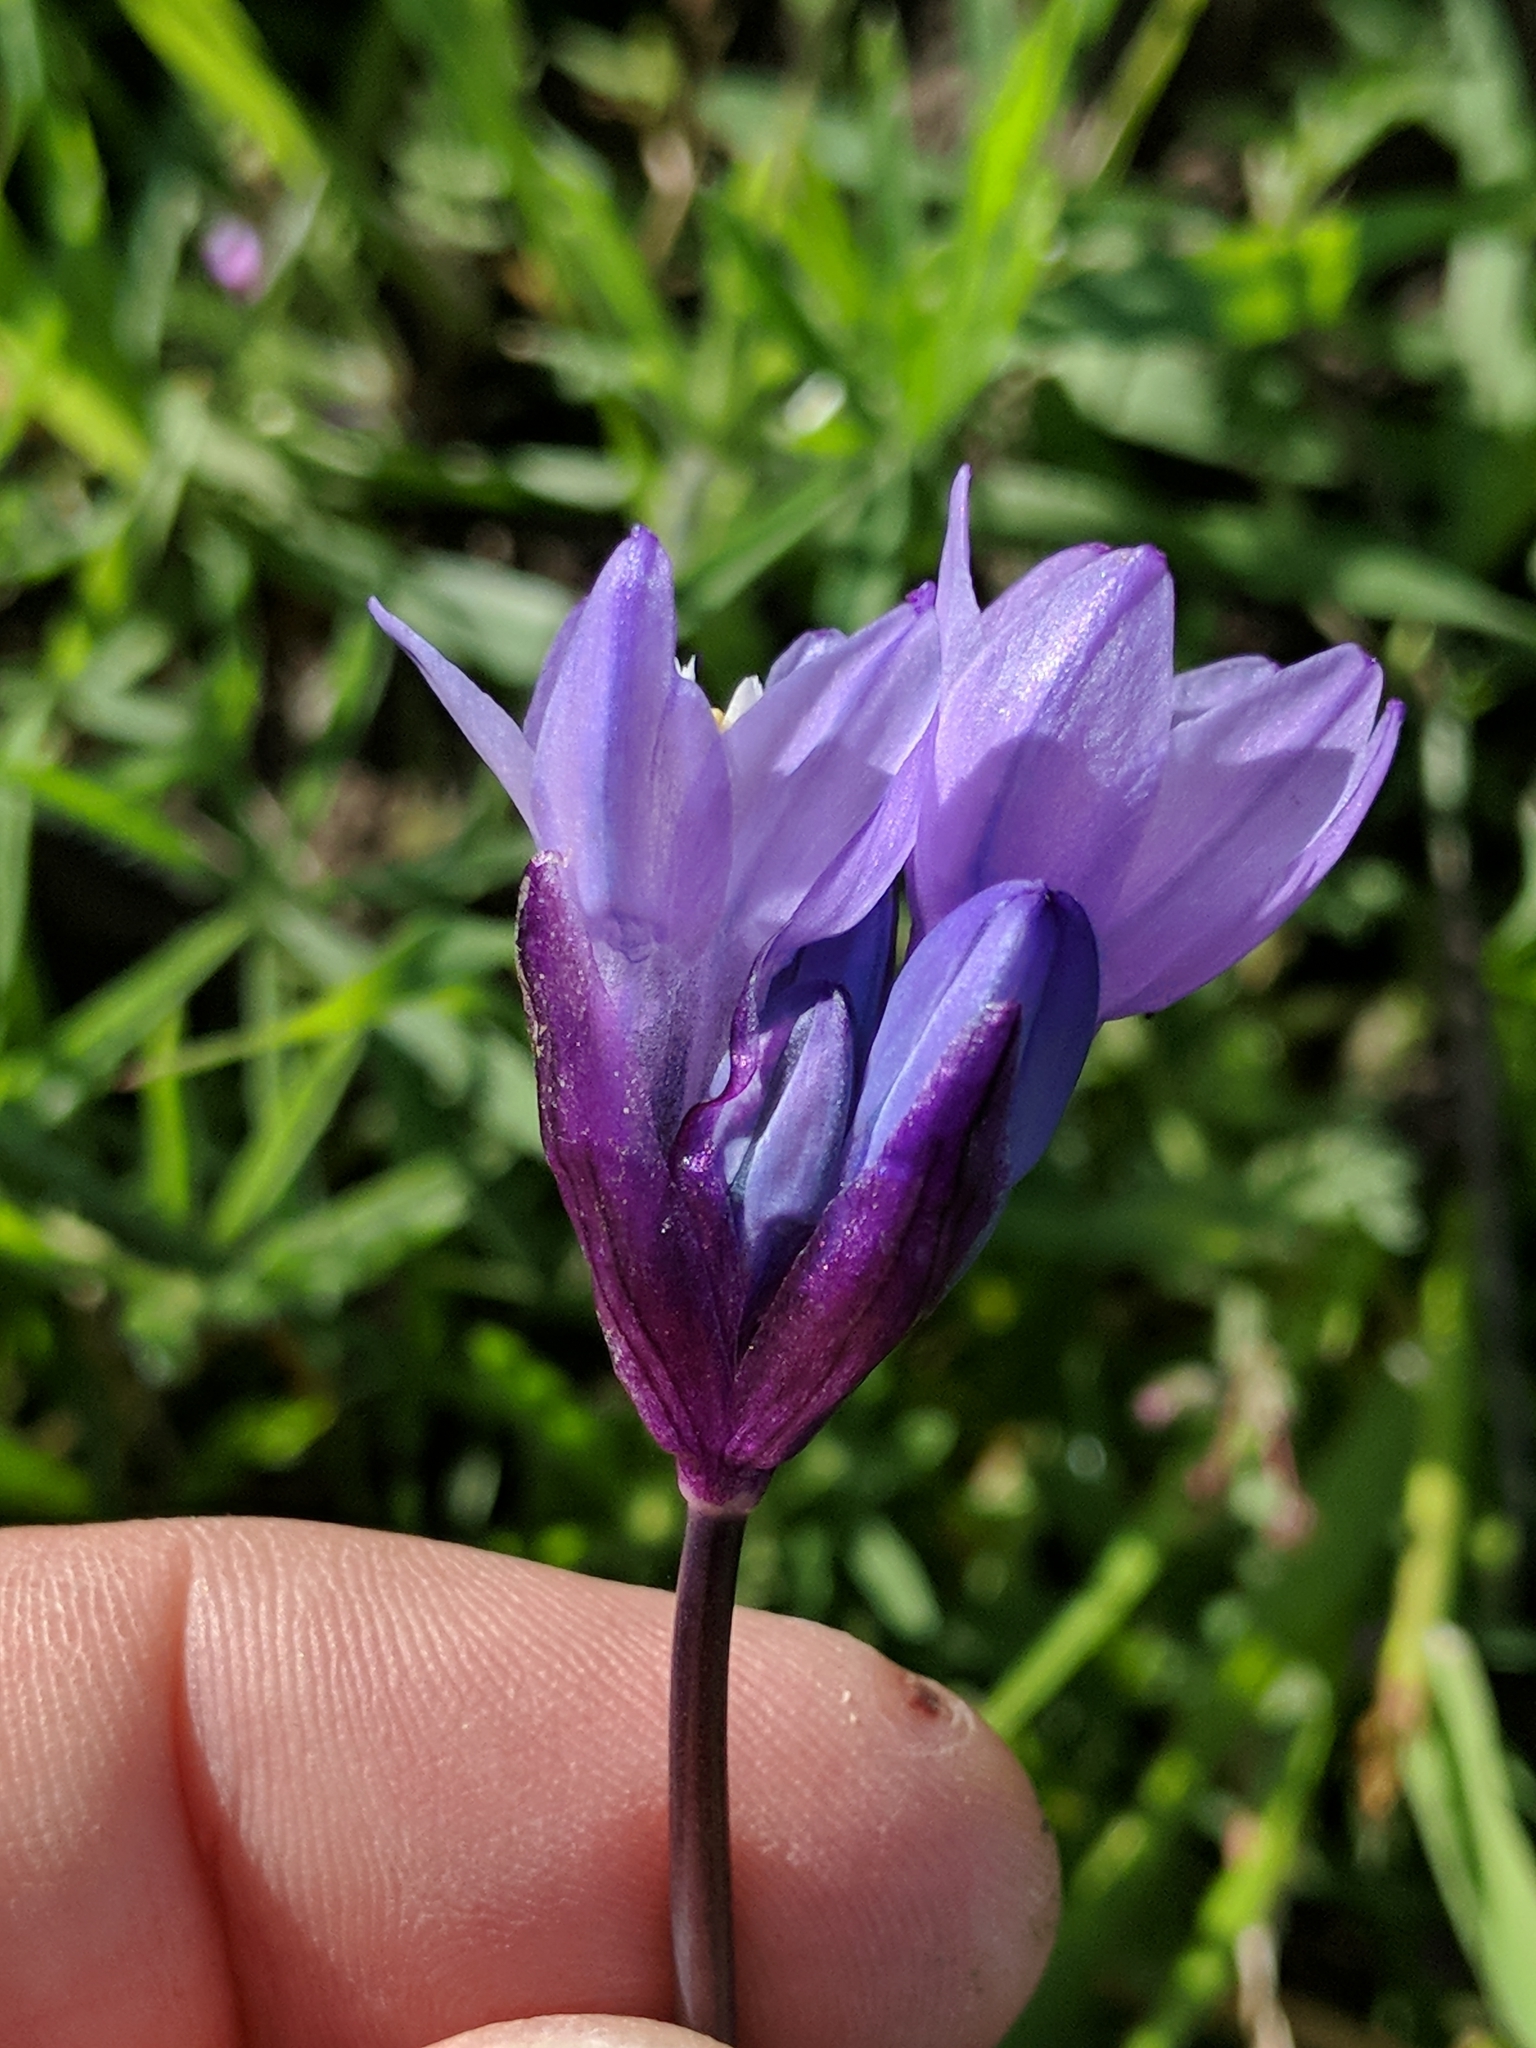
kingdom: Plantae
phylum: Tracheophyta
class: Liliopsida
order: Asparagales
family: Asparagaceae
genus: Dipterostemon
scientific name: Dipterostemon capitatus
